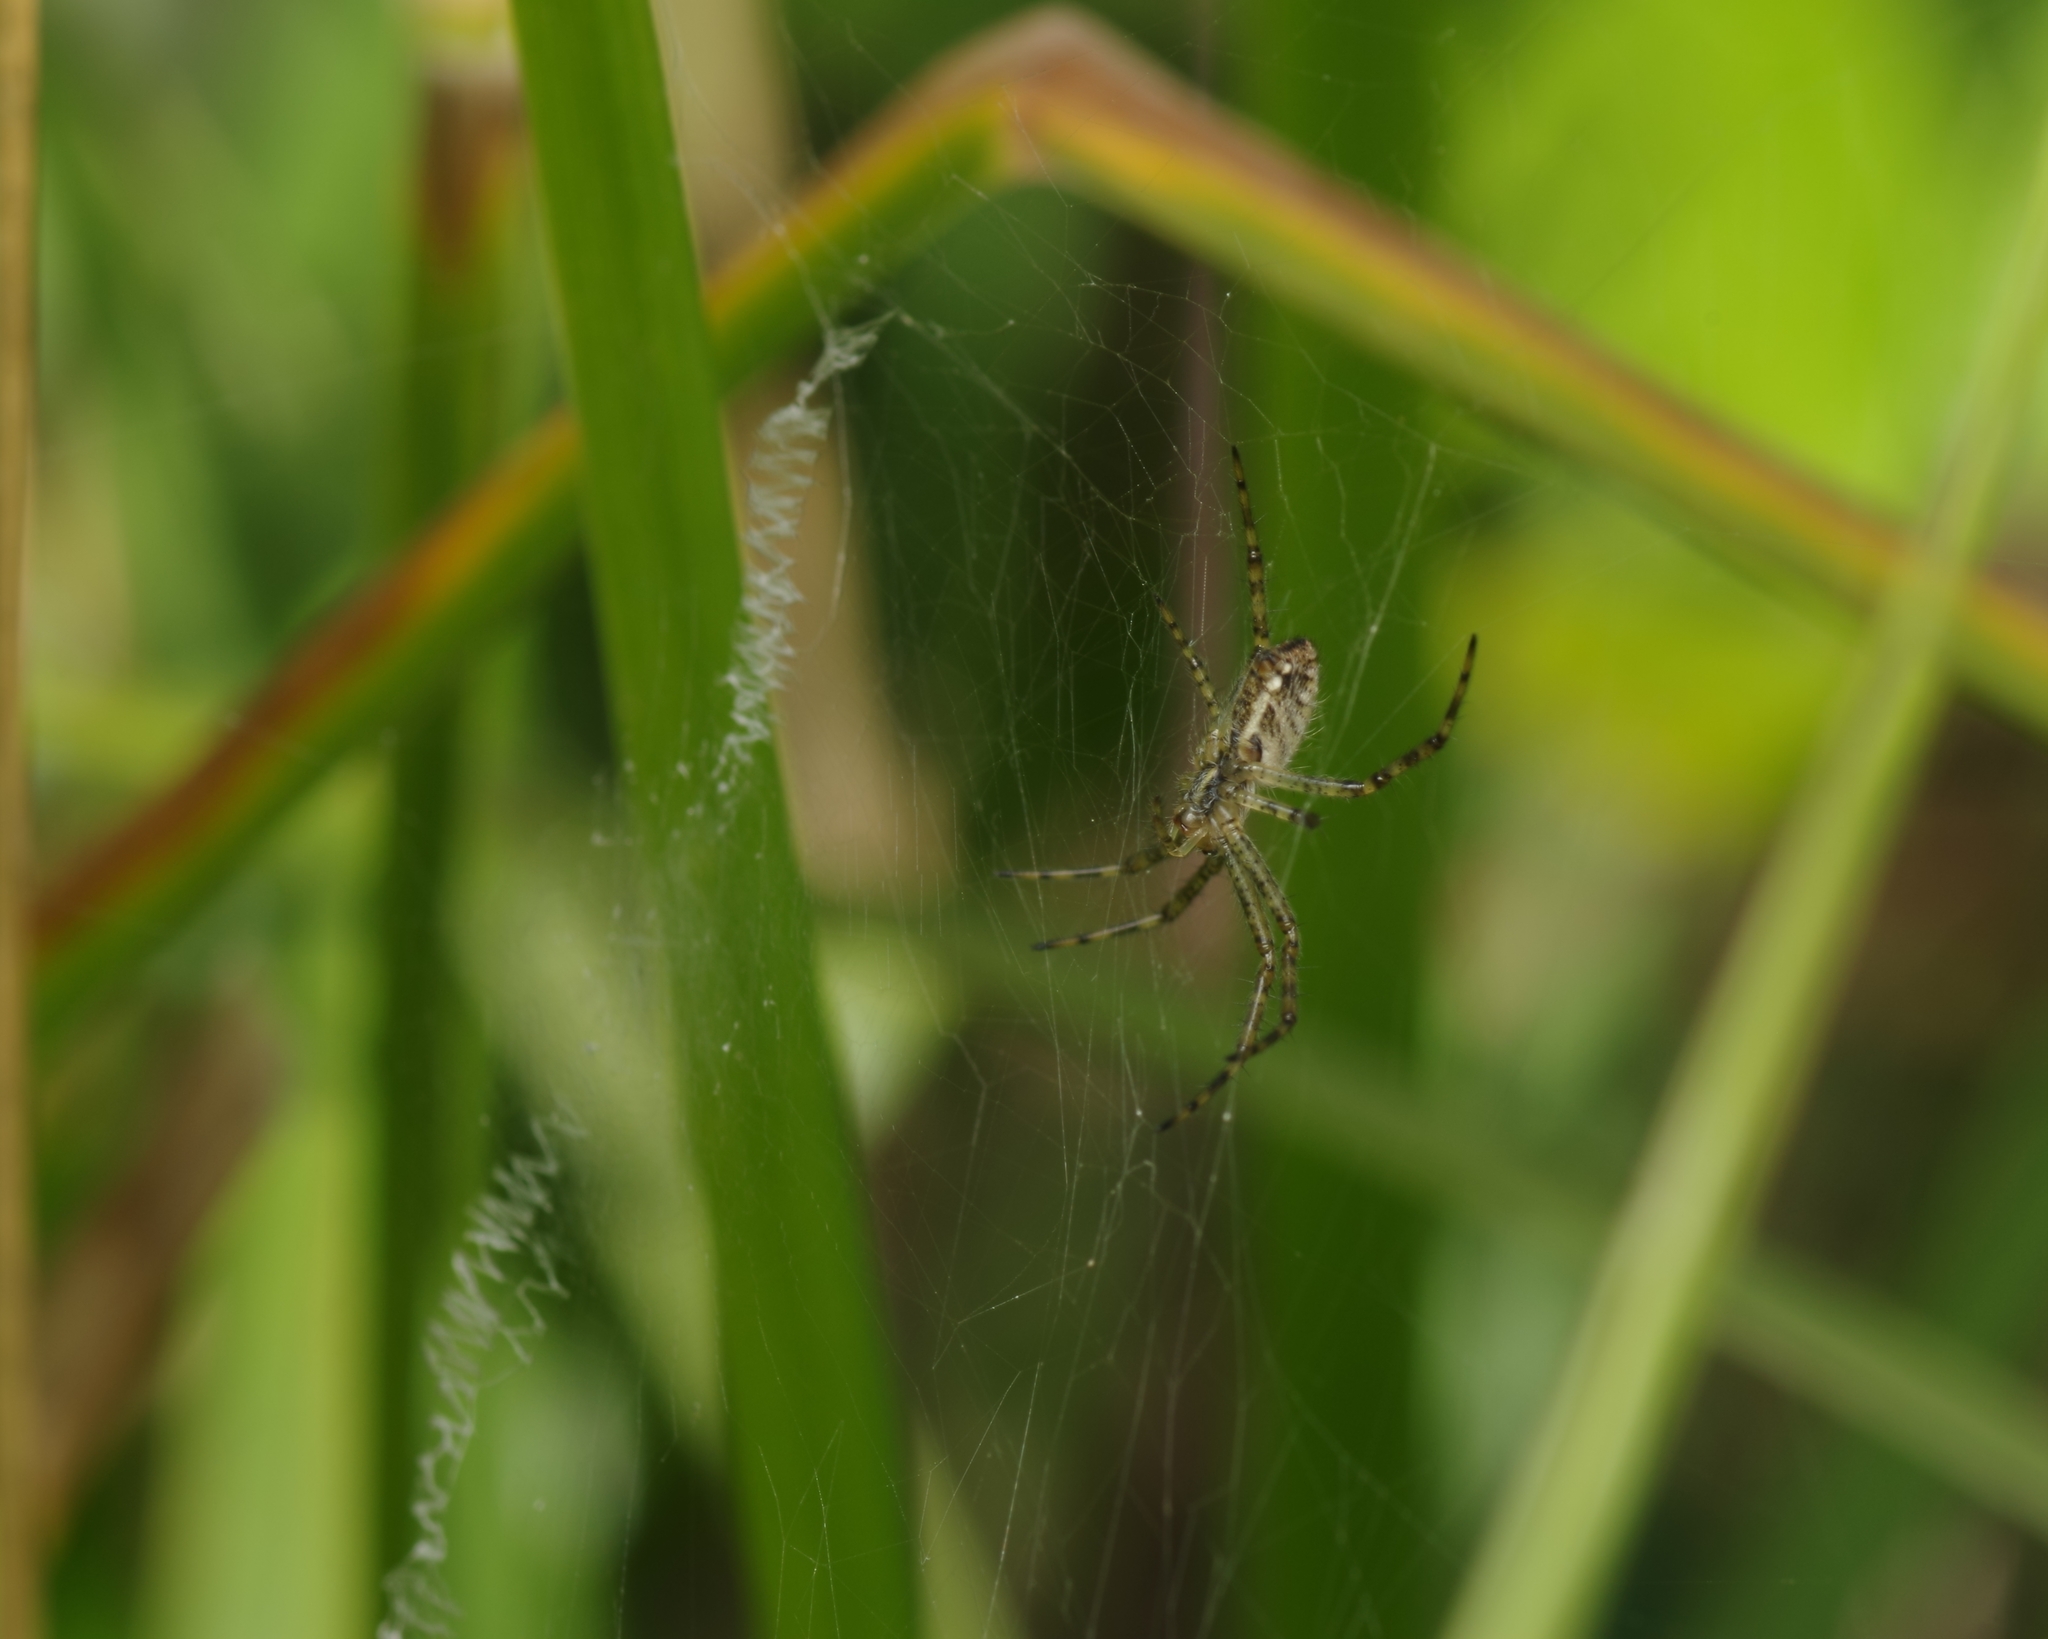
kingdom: Animalia
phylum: Arthropoda
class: Arachnida
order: Araneae
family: Araneidae
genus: Argiope
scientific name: Argiope bruennichi
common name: Wasp spider
